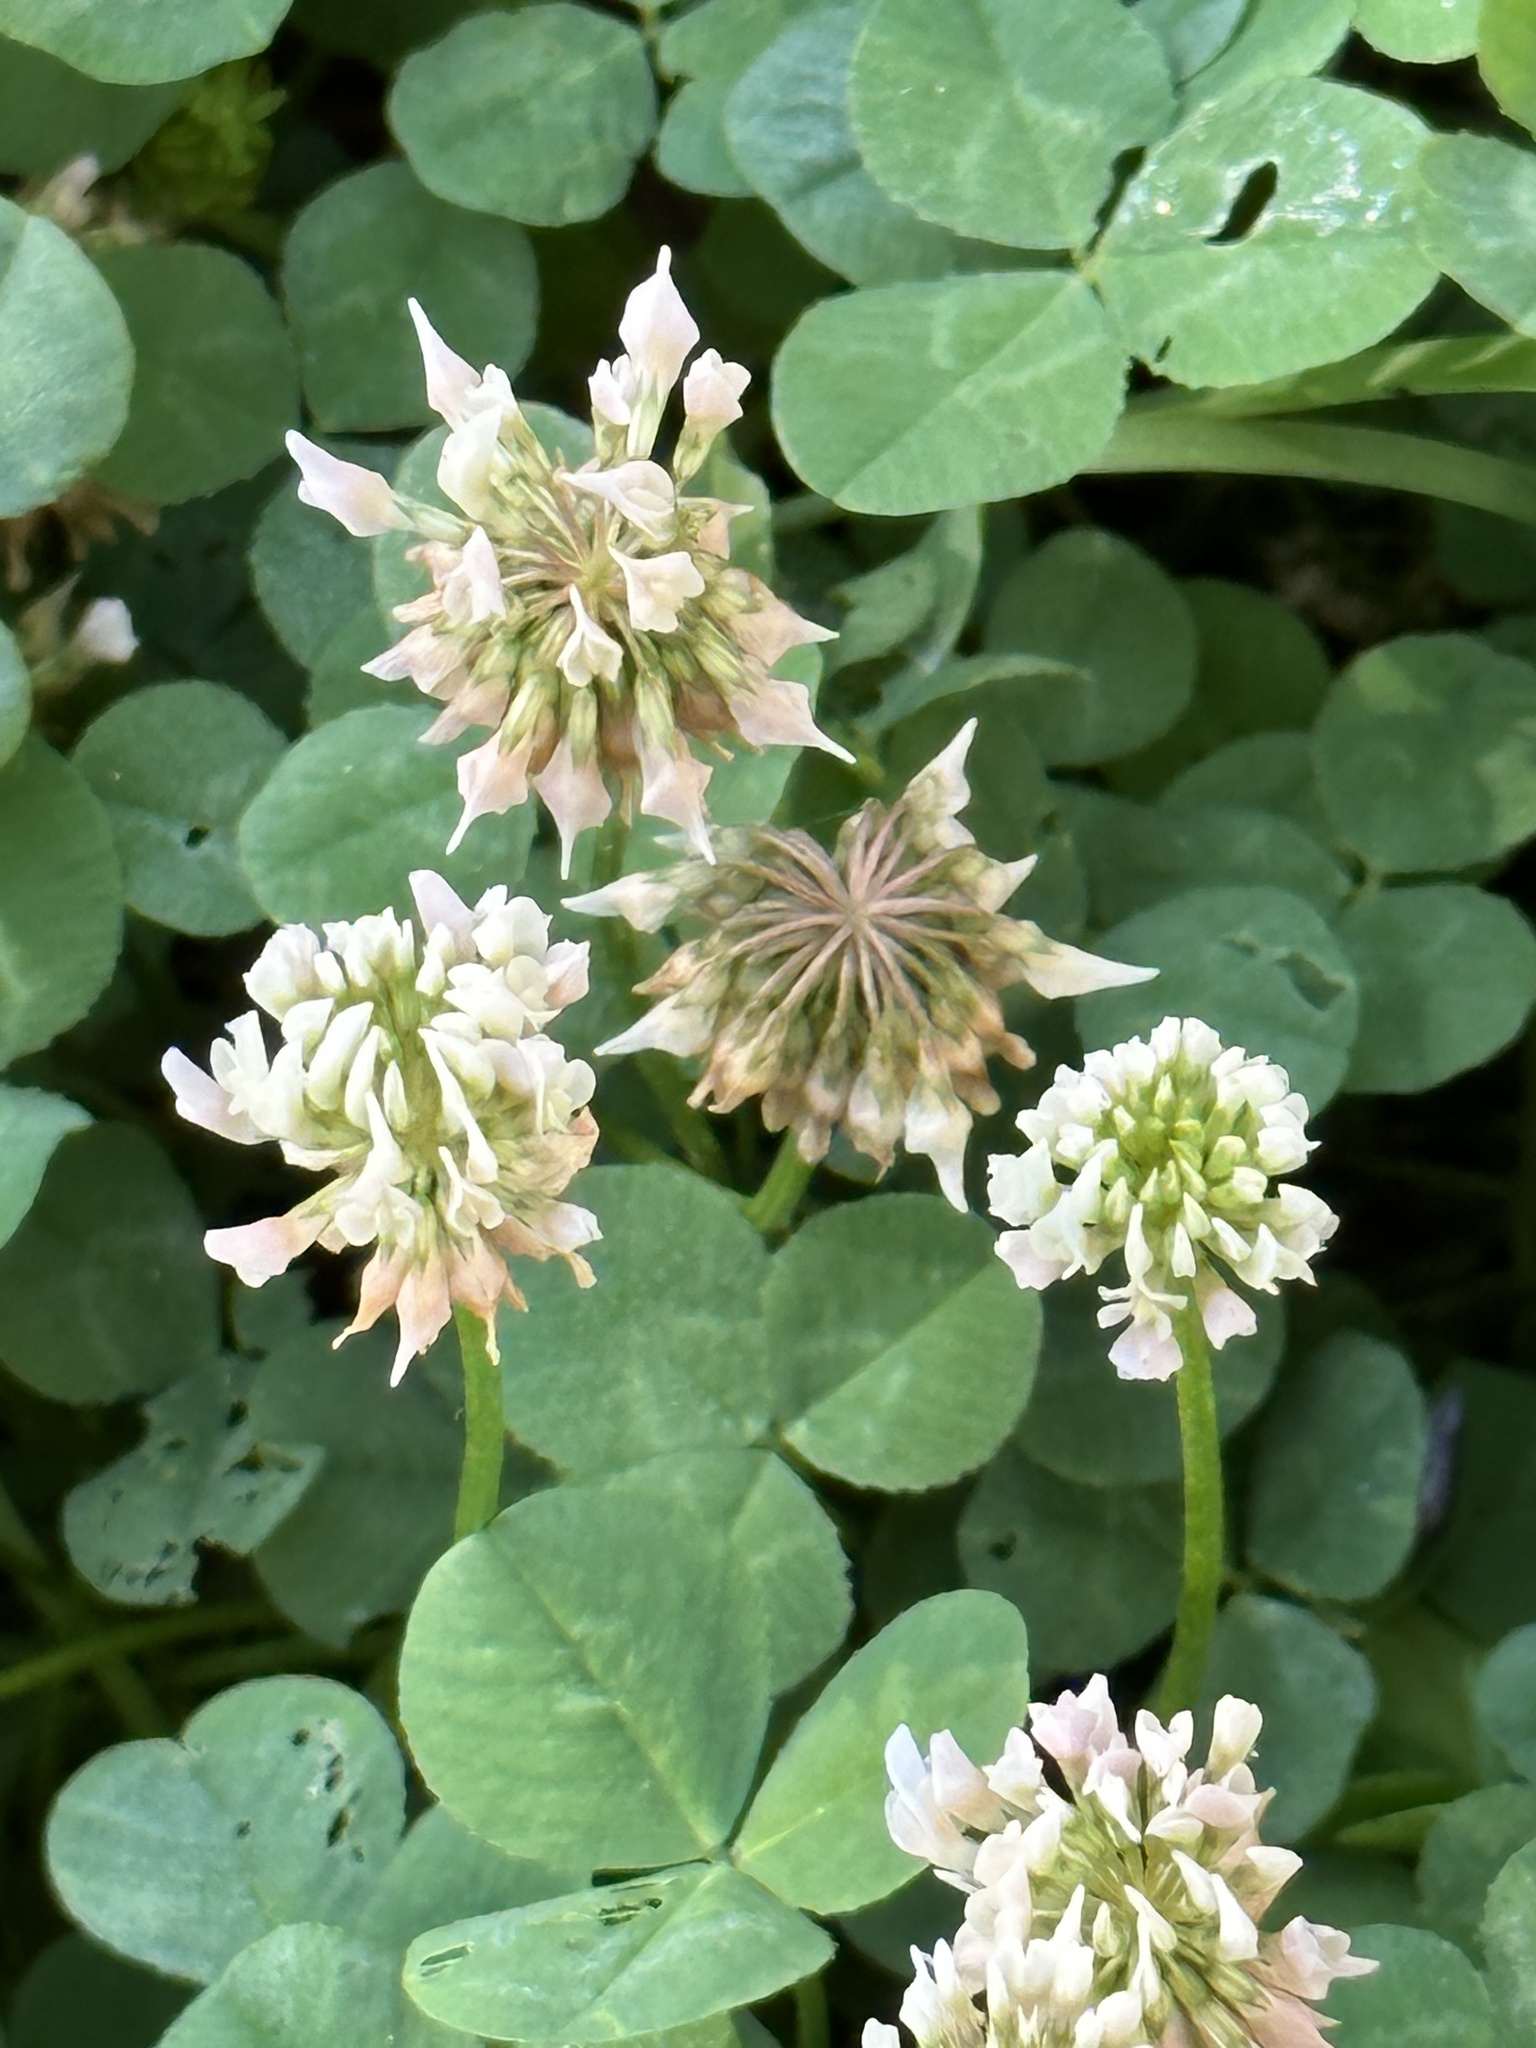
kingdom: Plantae
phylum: Tracheophyta
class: Magnoliopsida
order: Fabales
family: Fabaceae
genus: Trifolium
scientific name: Trifolium repens
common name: White clover
